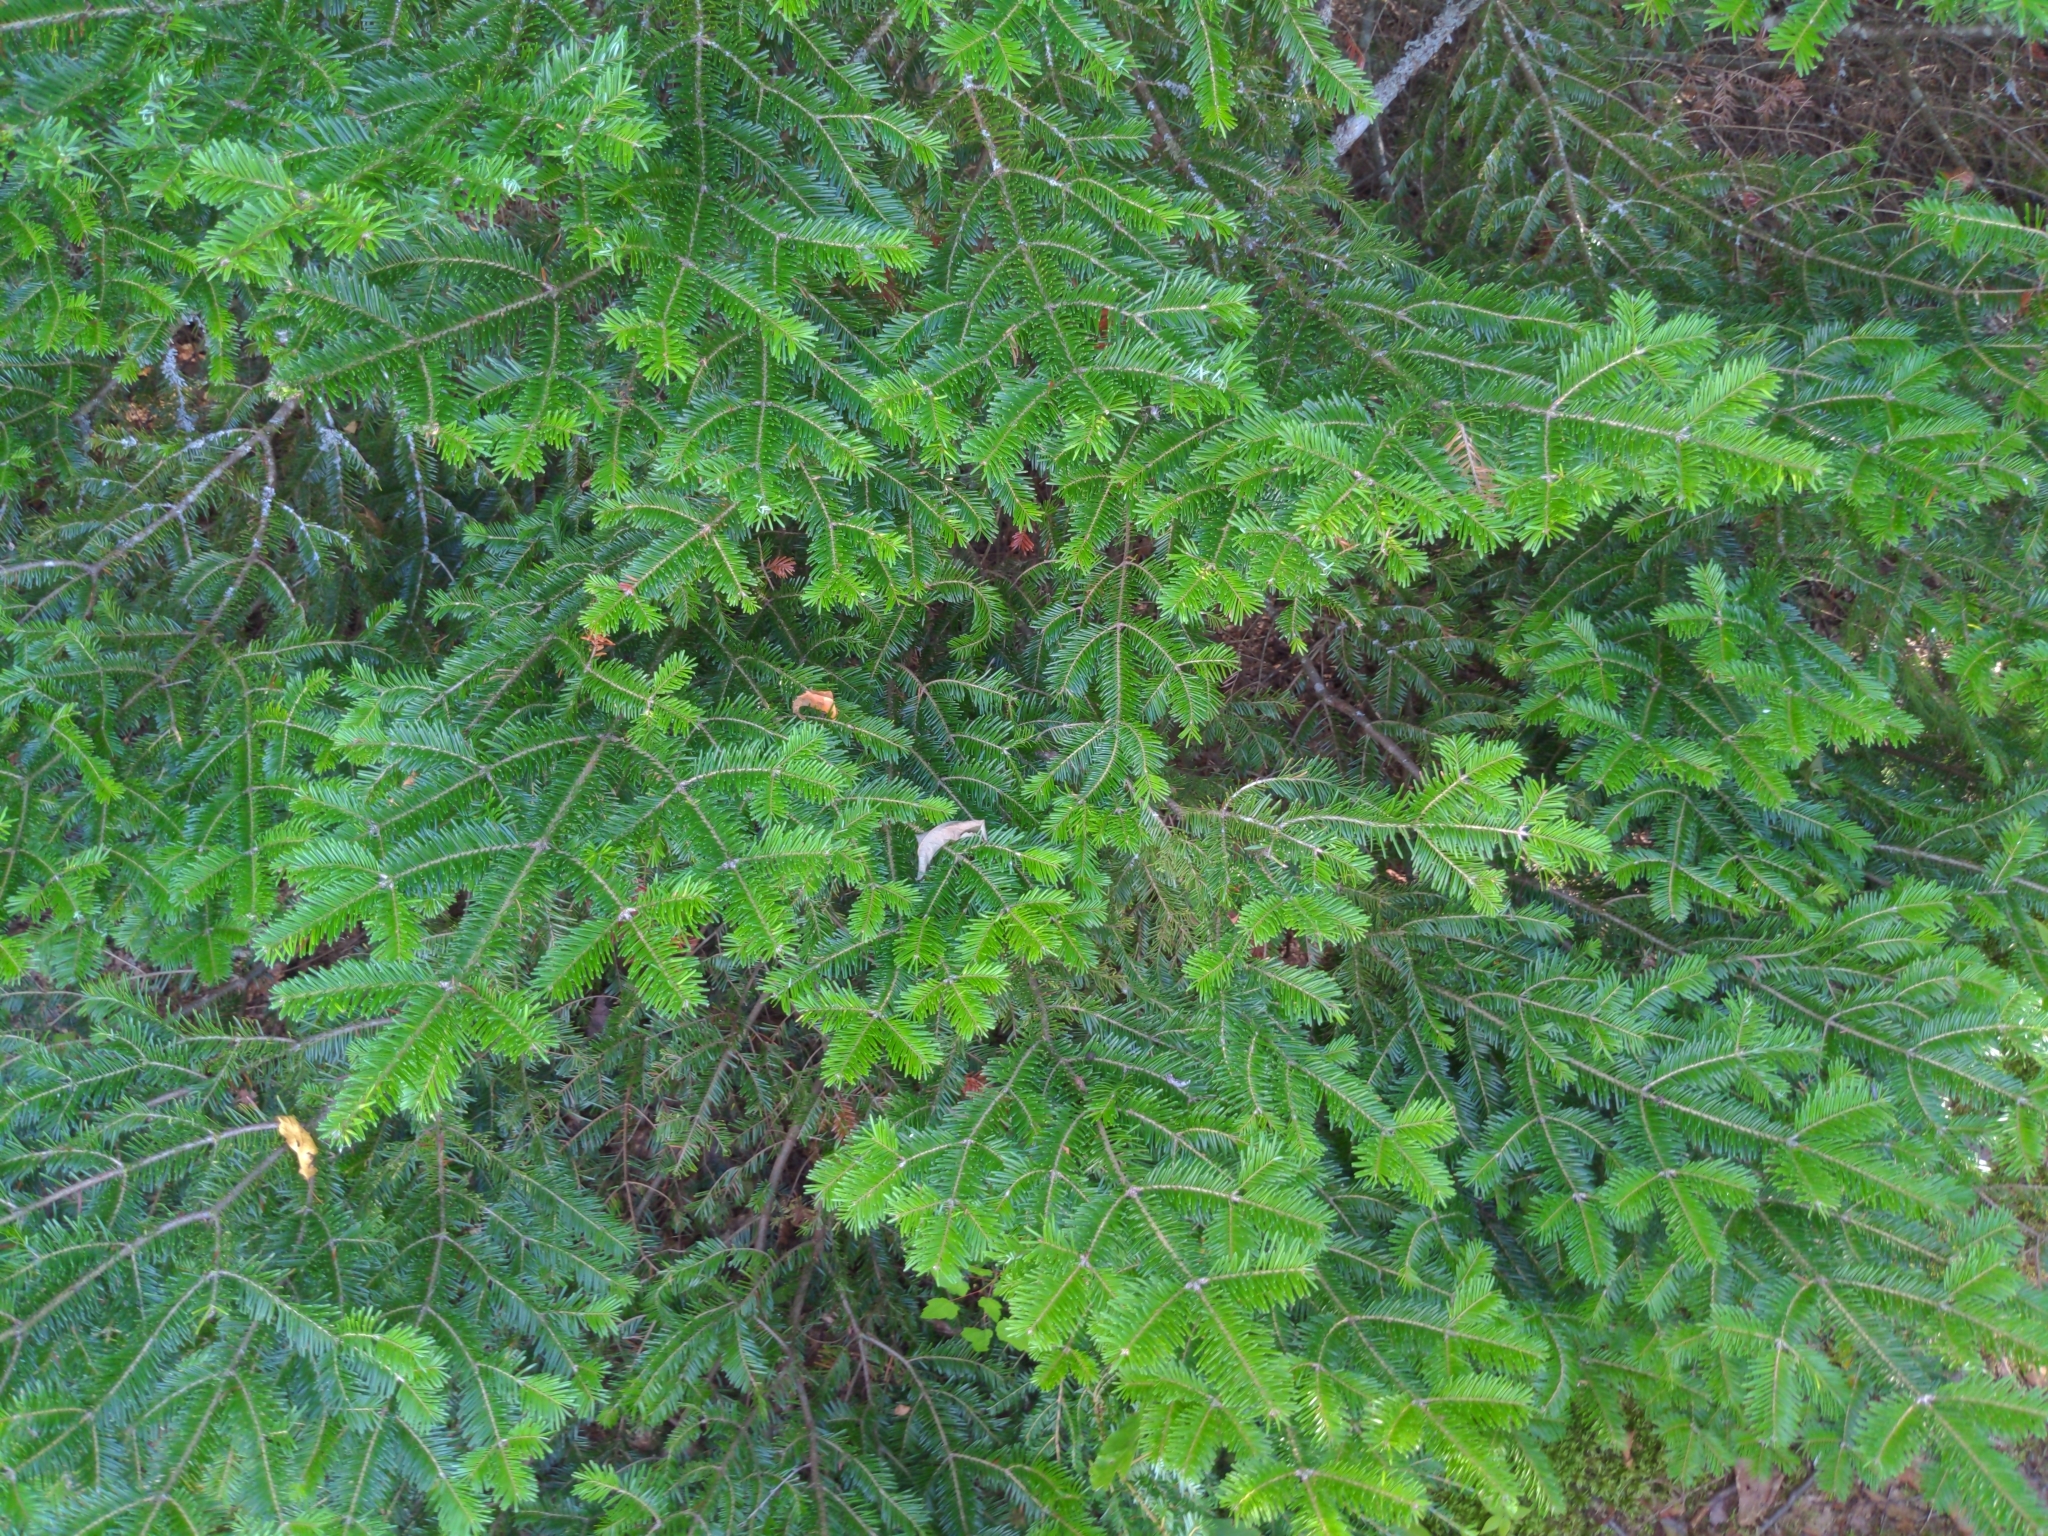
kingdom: Plantae
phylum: Tracheophyta
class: Pinopsida
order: Pinales
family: Pinaceae
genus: Abies
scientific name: Abies balsamea
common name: Balsam fir
